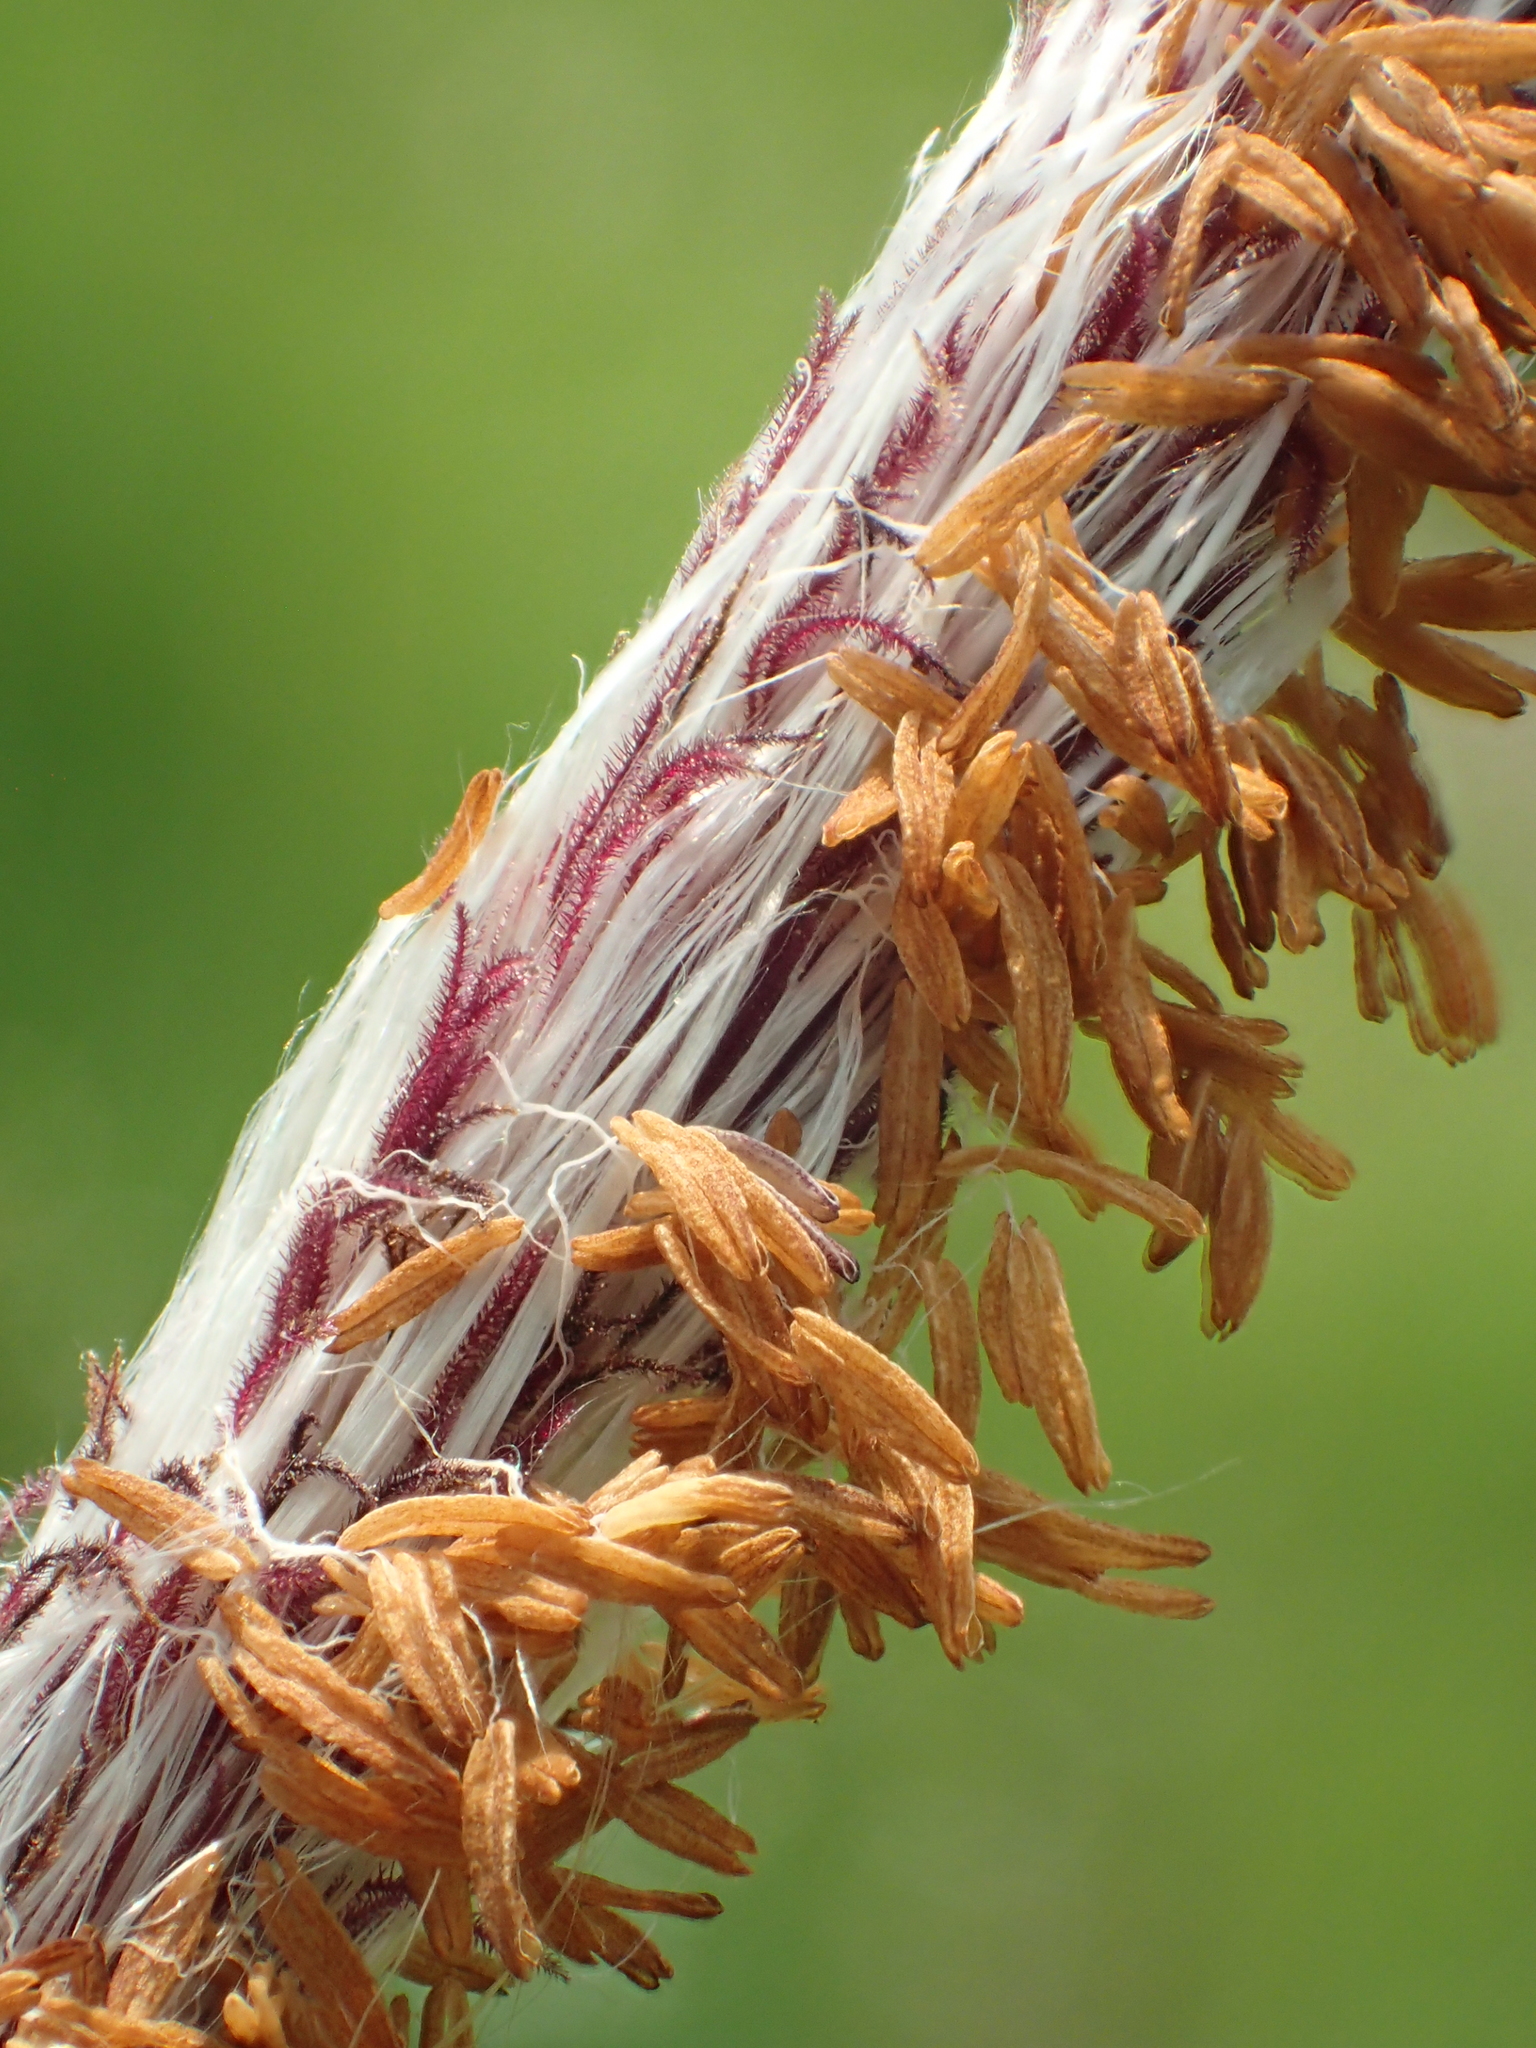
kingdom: Plantae
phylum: Tracheophyta
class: Liliopsida
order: Poales
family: Poaceae
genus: Imperata
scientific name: Imperata cylindrica
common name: Cogongrass
